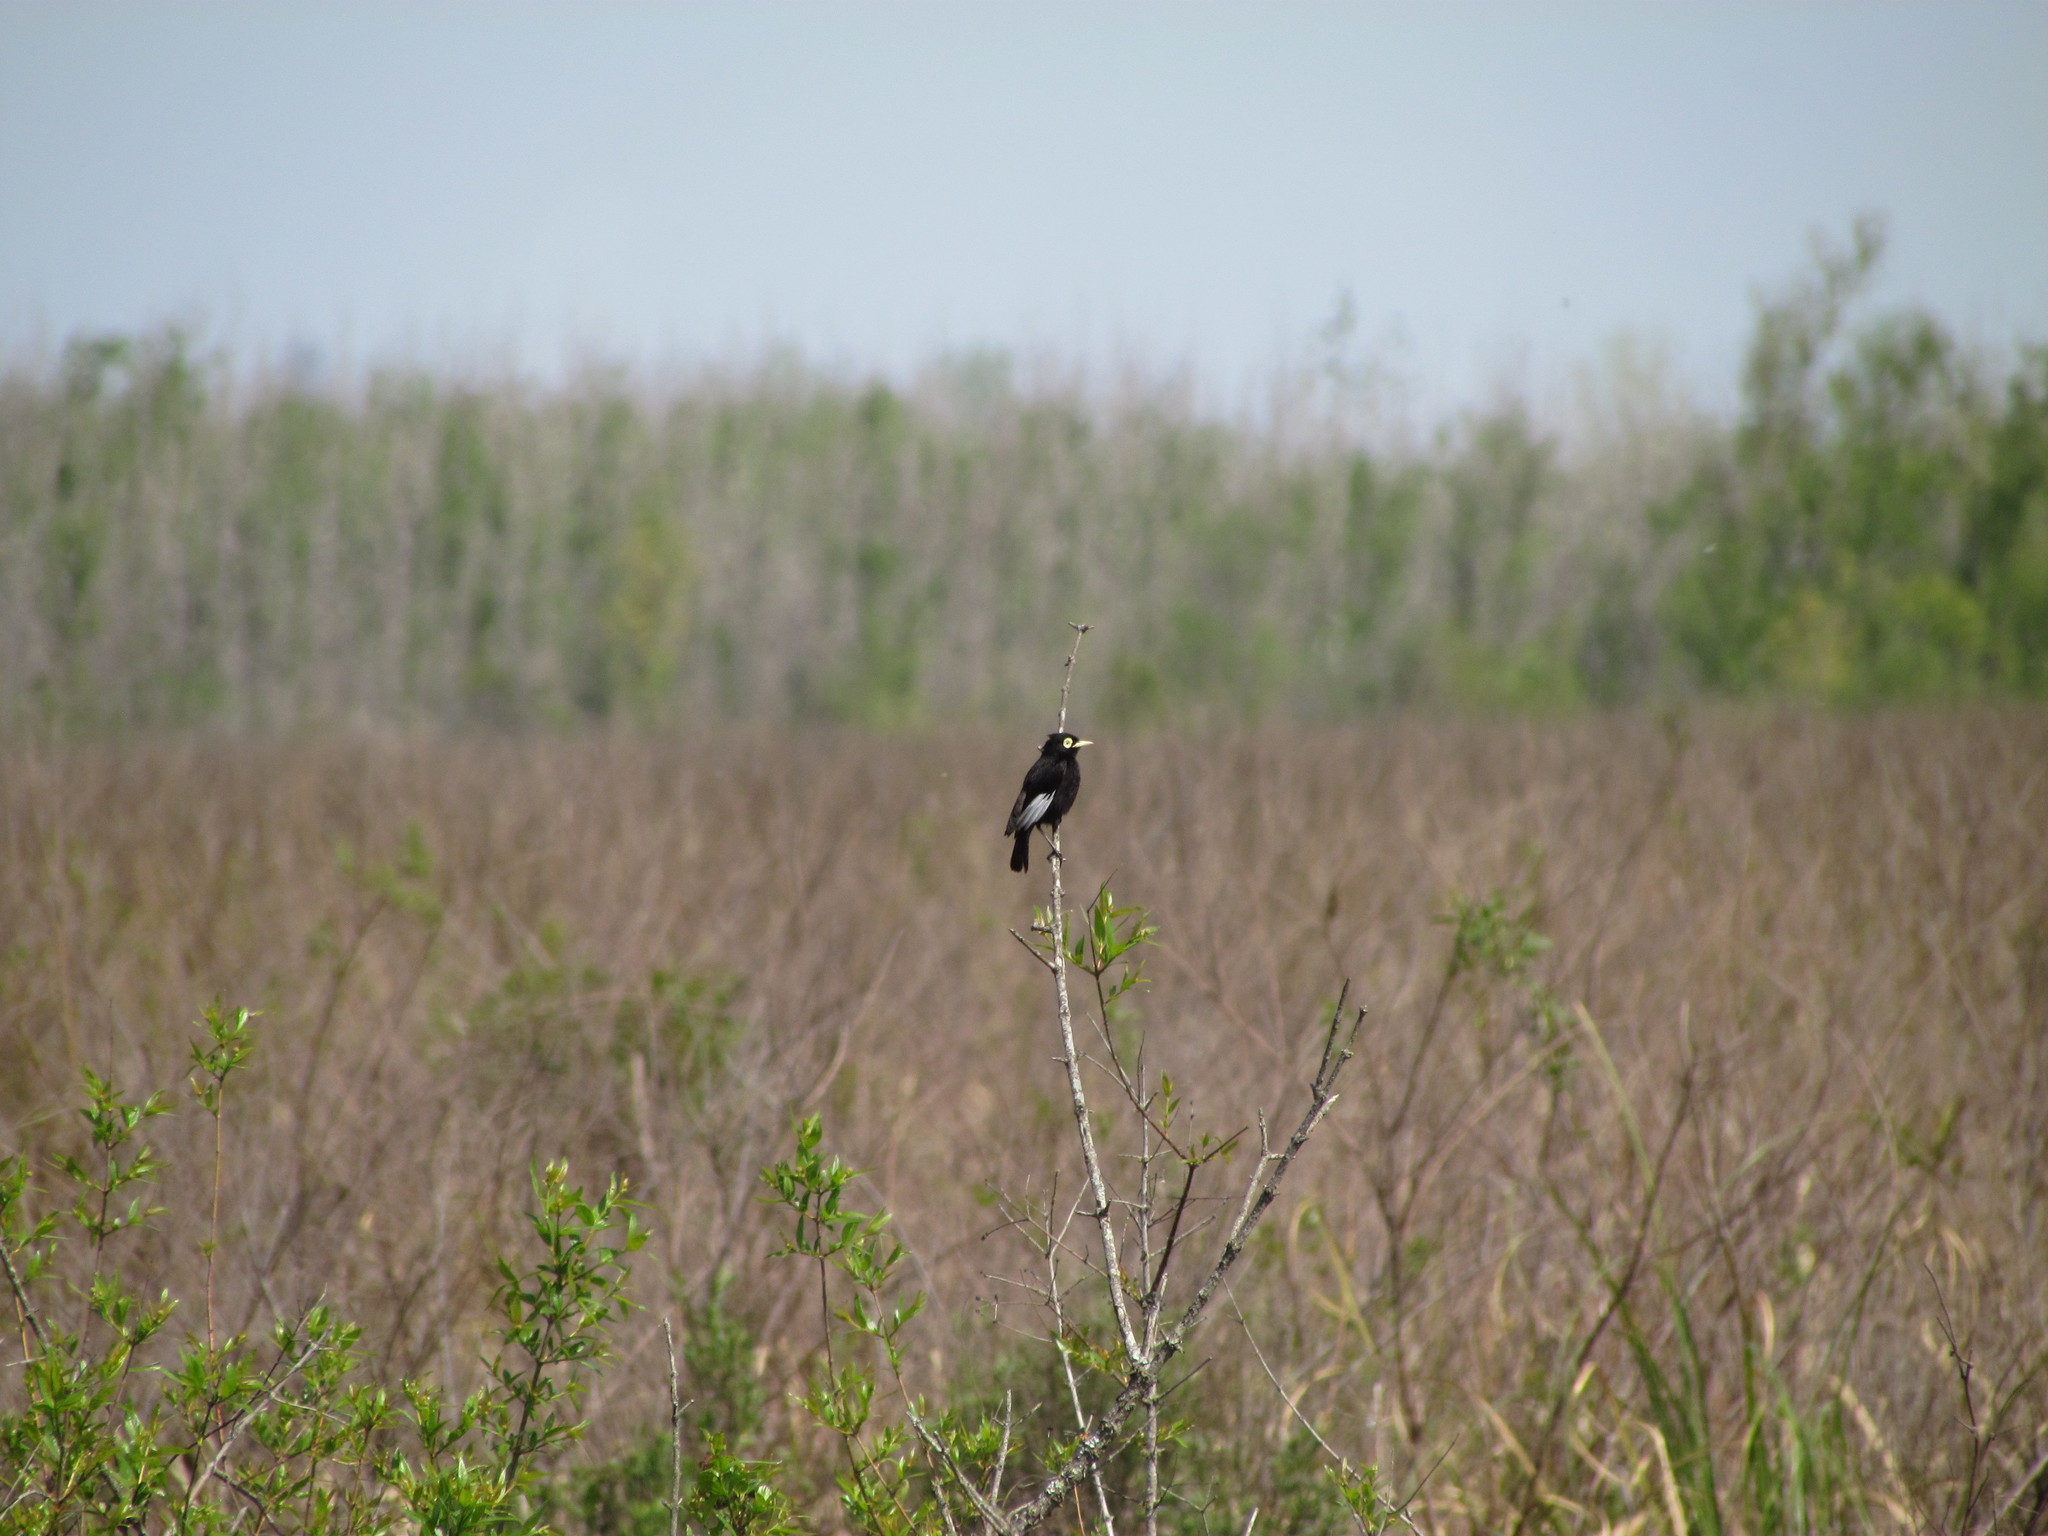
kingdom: Animalia
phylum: Chordata
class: Aves
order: Passeriformes
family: Tyrannidae
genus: Hymenops
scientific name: Hymenops perspicillatus
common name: Spectacled tyrant
